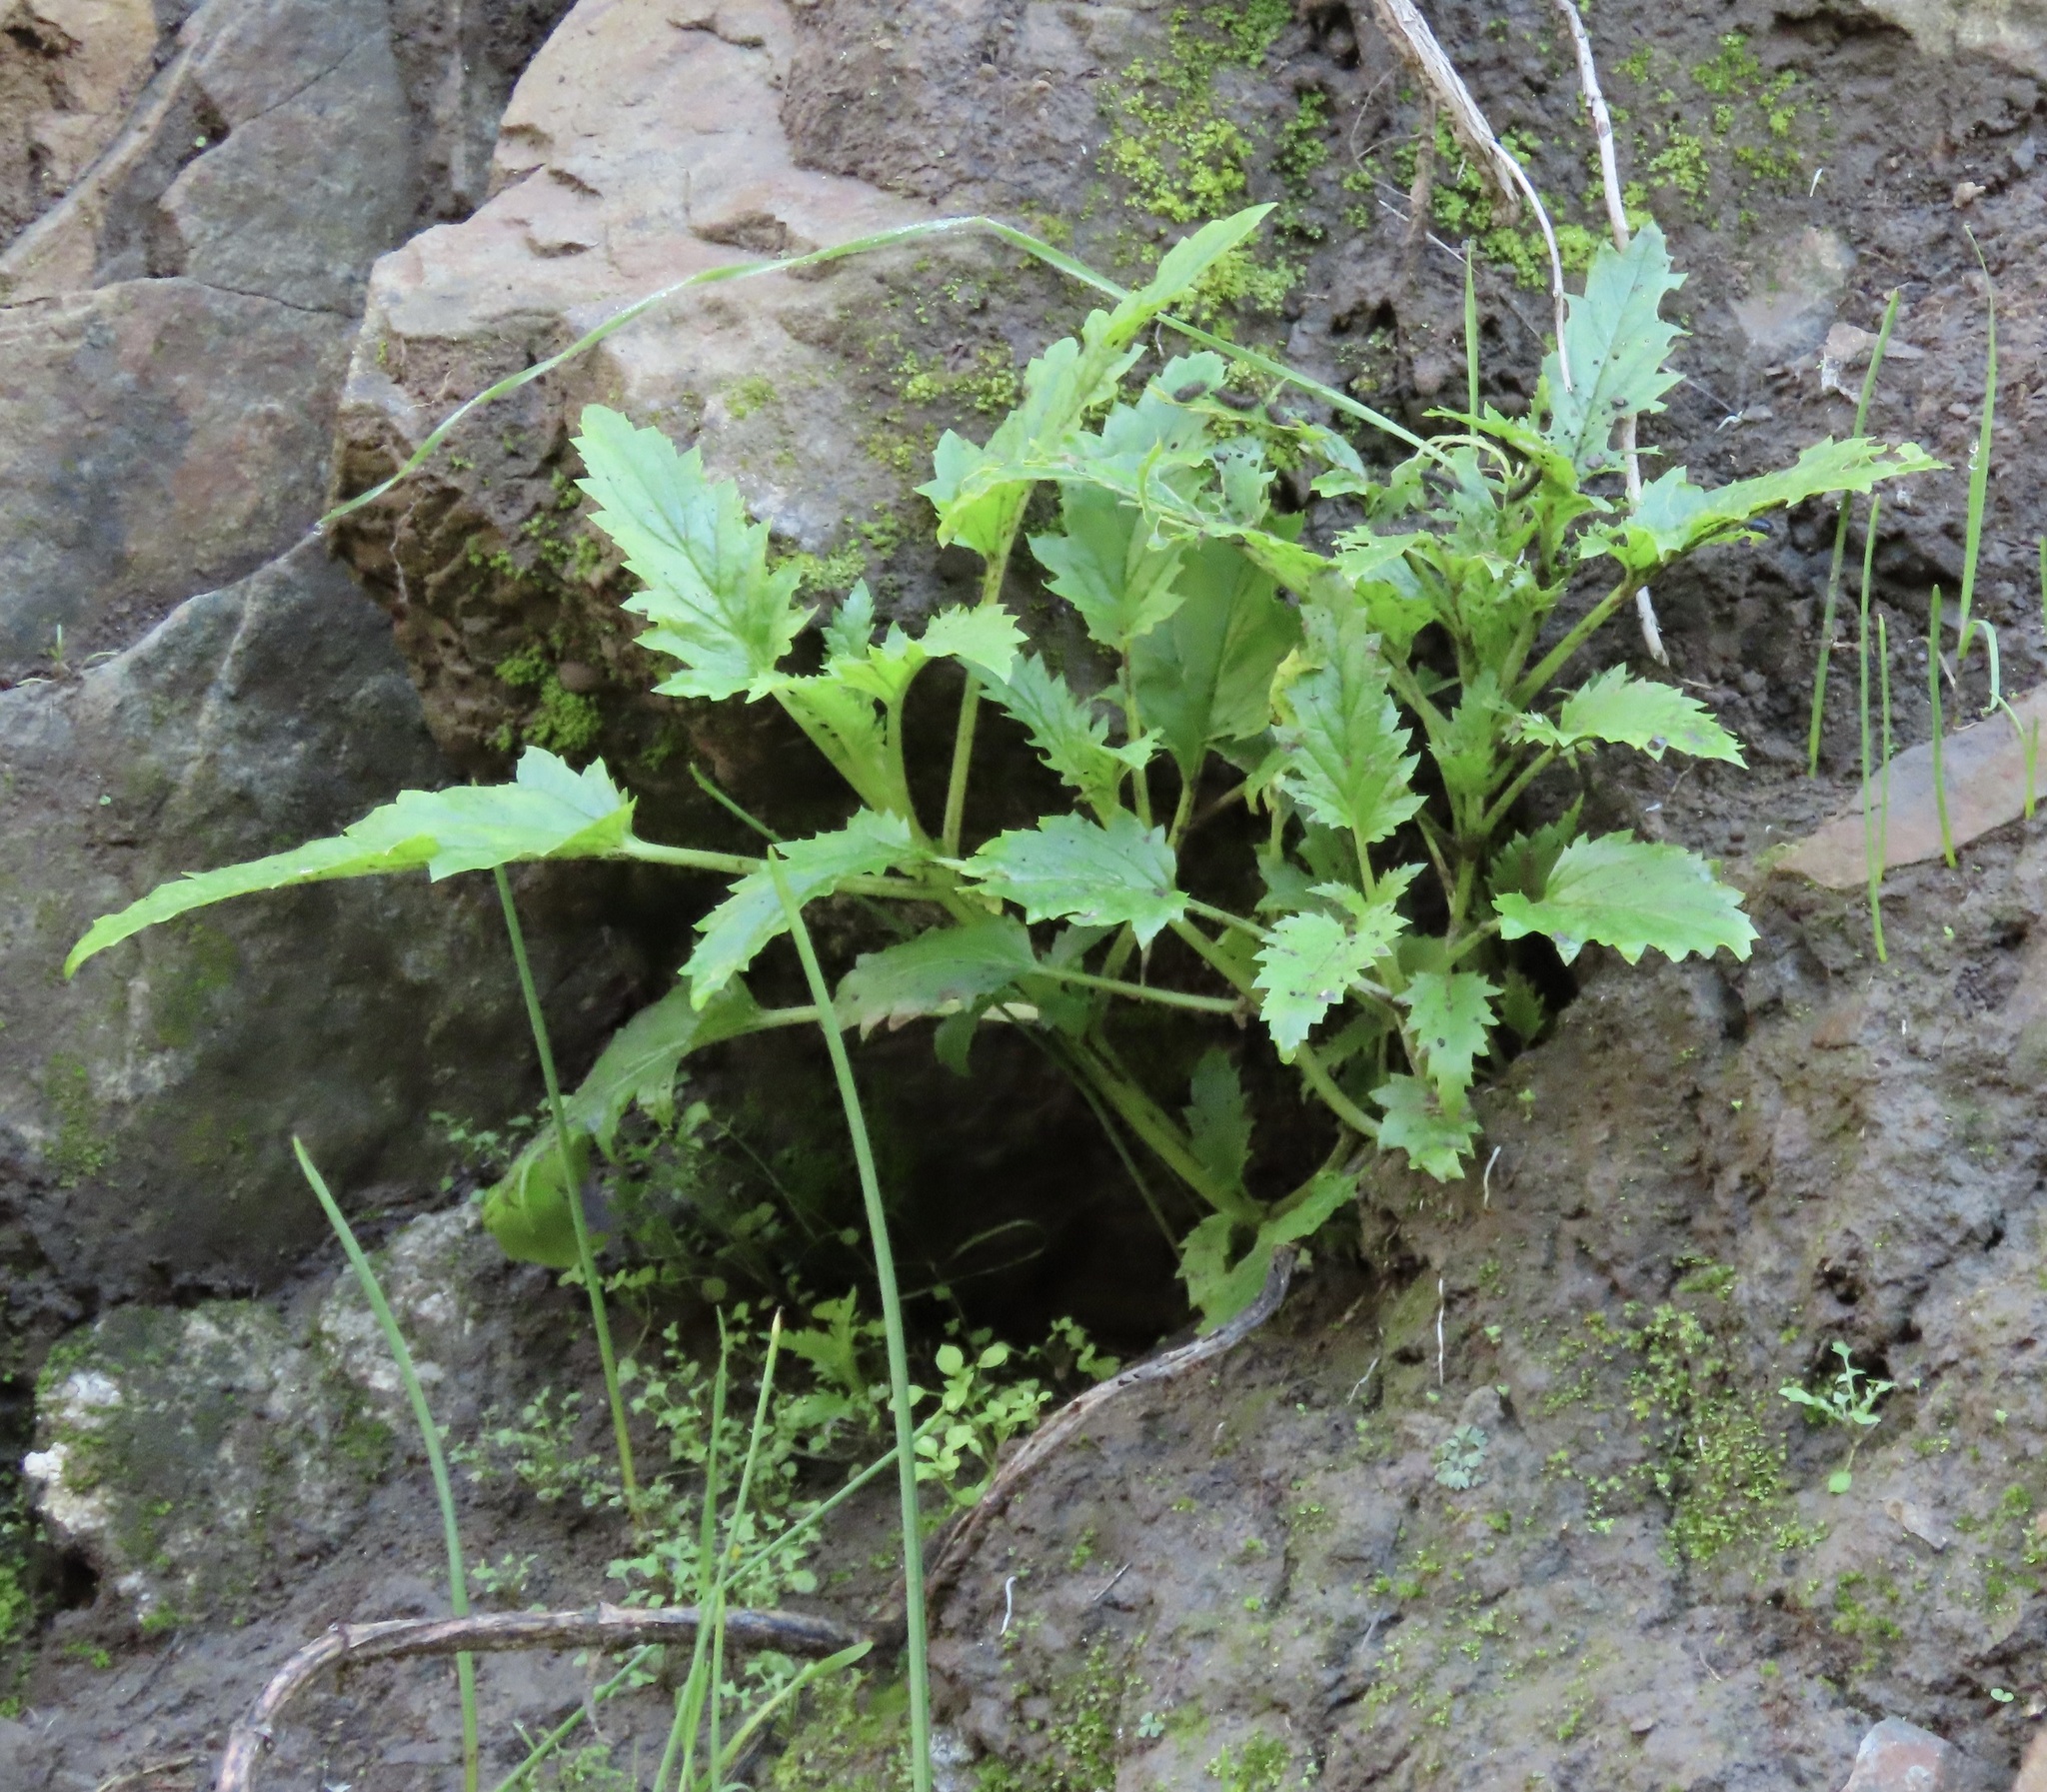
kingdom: Animalia
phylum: Arthropoda
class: Insecta
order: Lepidoptera
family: Nymphalidae
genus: Occidryas
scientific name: Occidryas chalcedona
